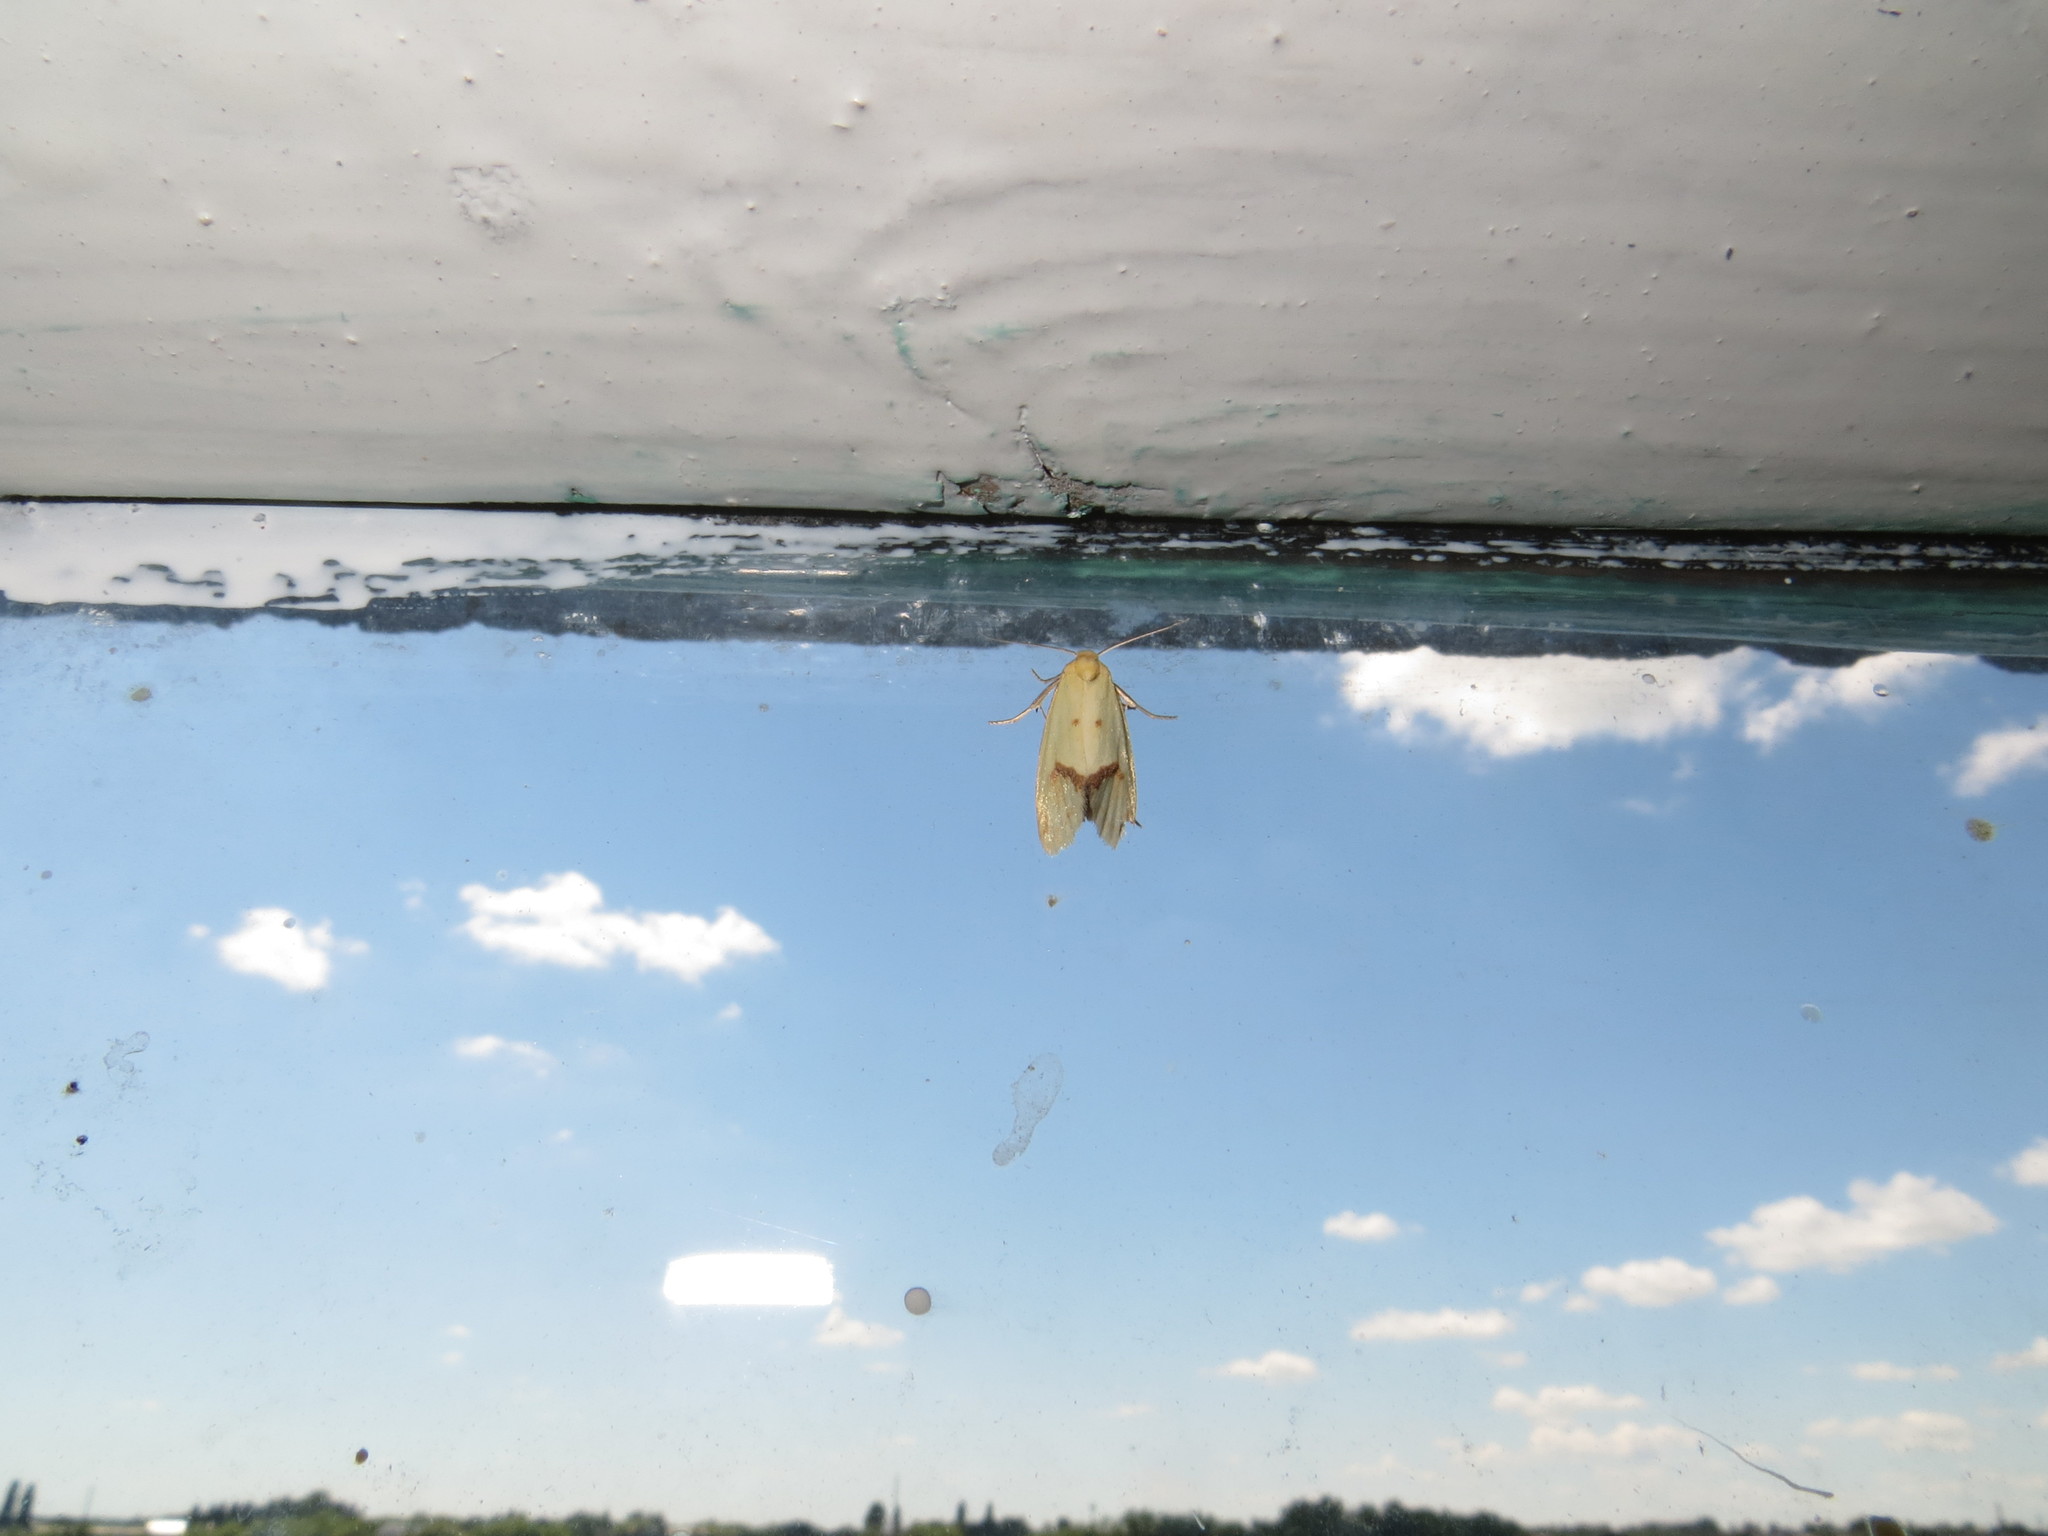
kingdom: Animalia
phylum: Arthropoda
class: Insecta
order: Lepidoptera
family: Tortricidae
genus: Agapeta
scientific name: Agapeta hamana
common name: Common yellow conch
